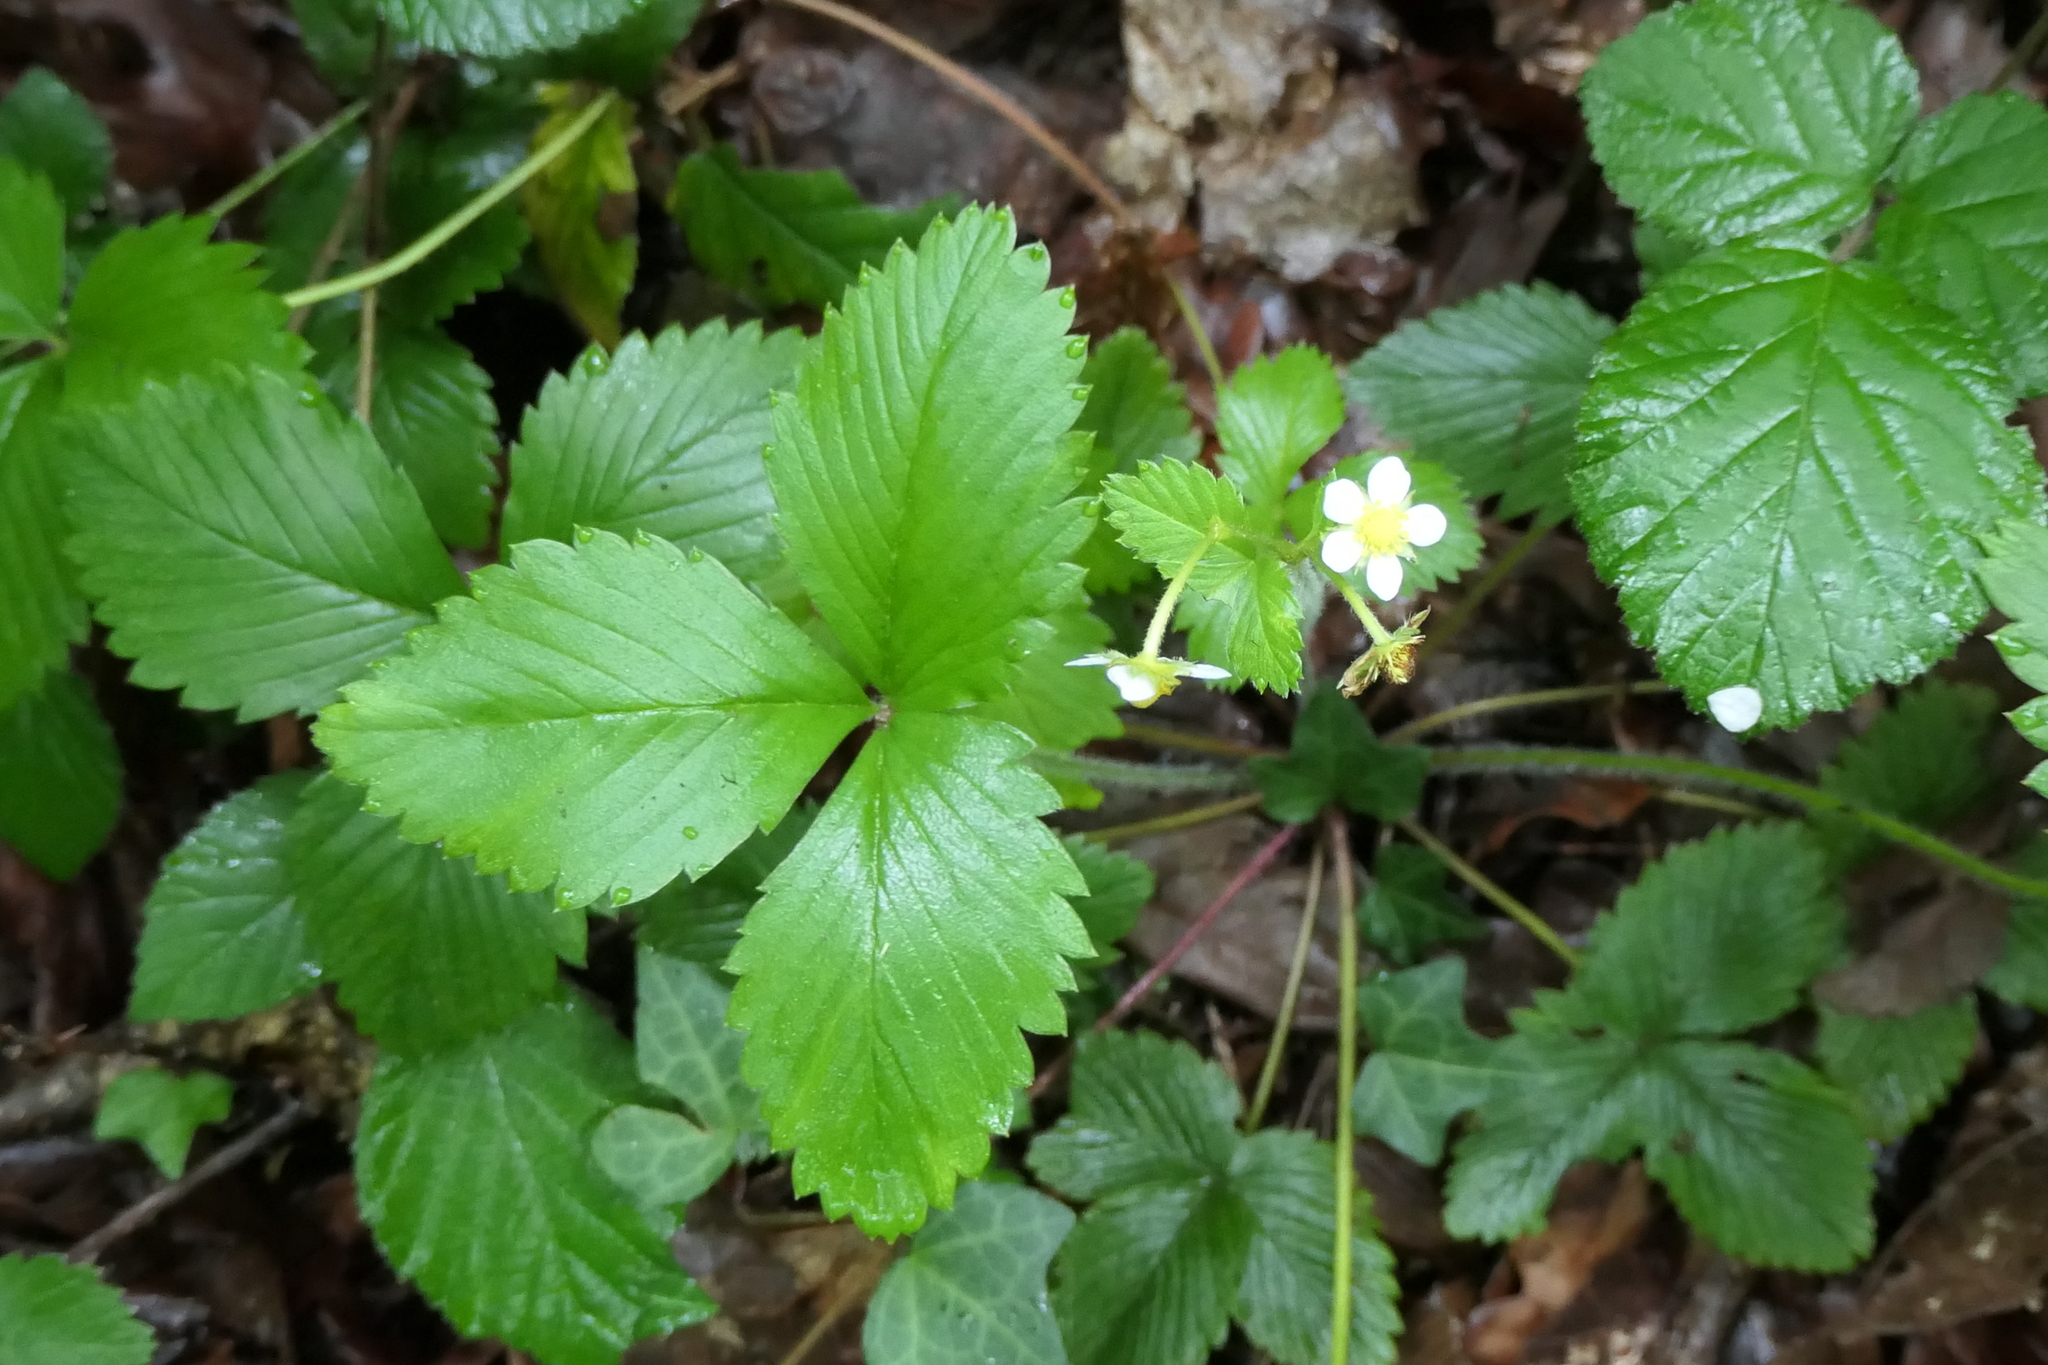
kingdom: Plantae
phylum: Tracheophyta
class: Magnoliopsida
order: Rosales
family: Rosaceae
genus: Fragaria
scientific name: Fragaria vesca
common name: Wild strawberry
